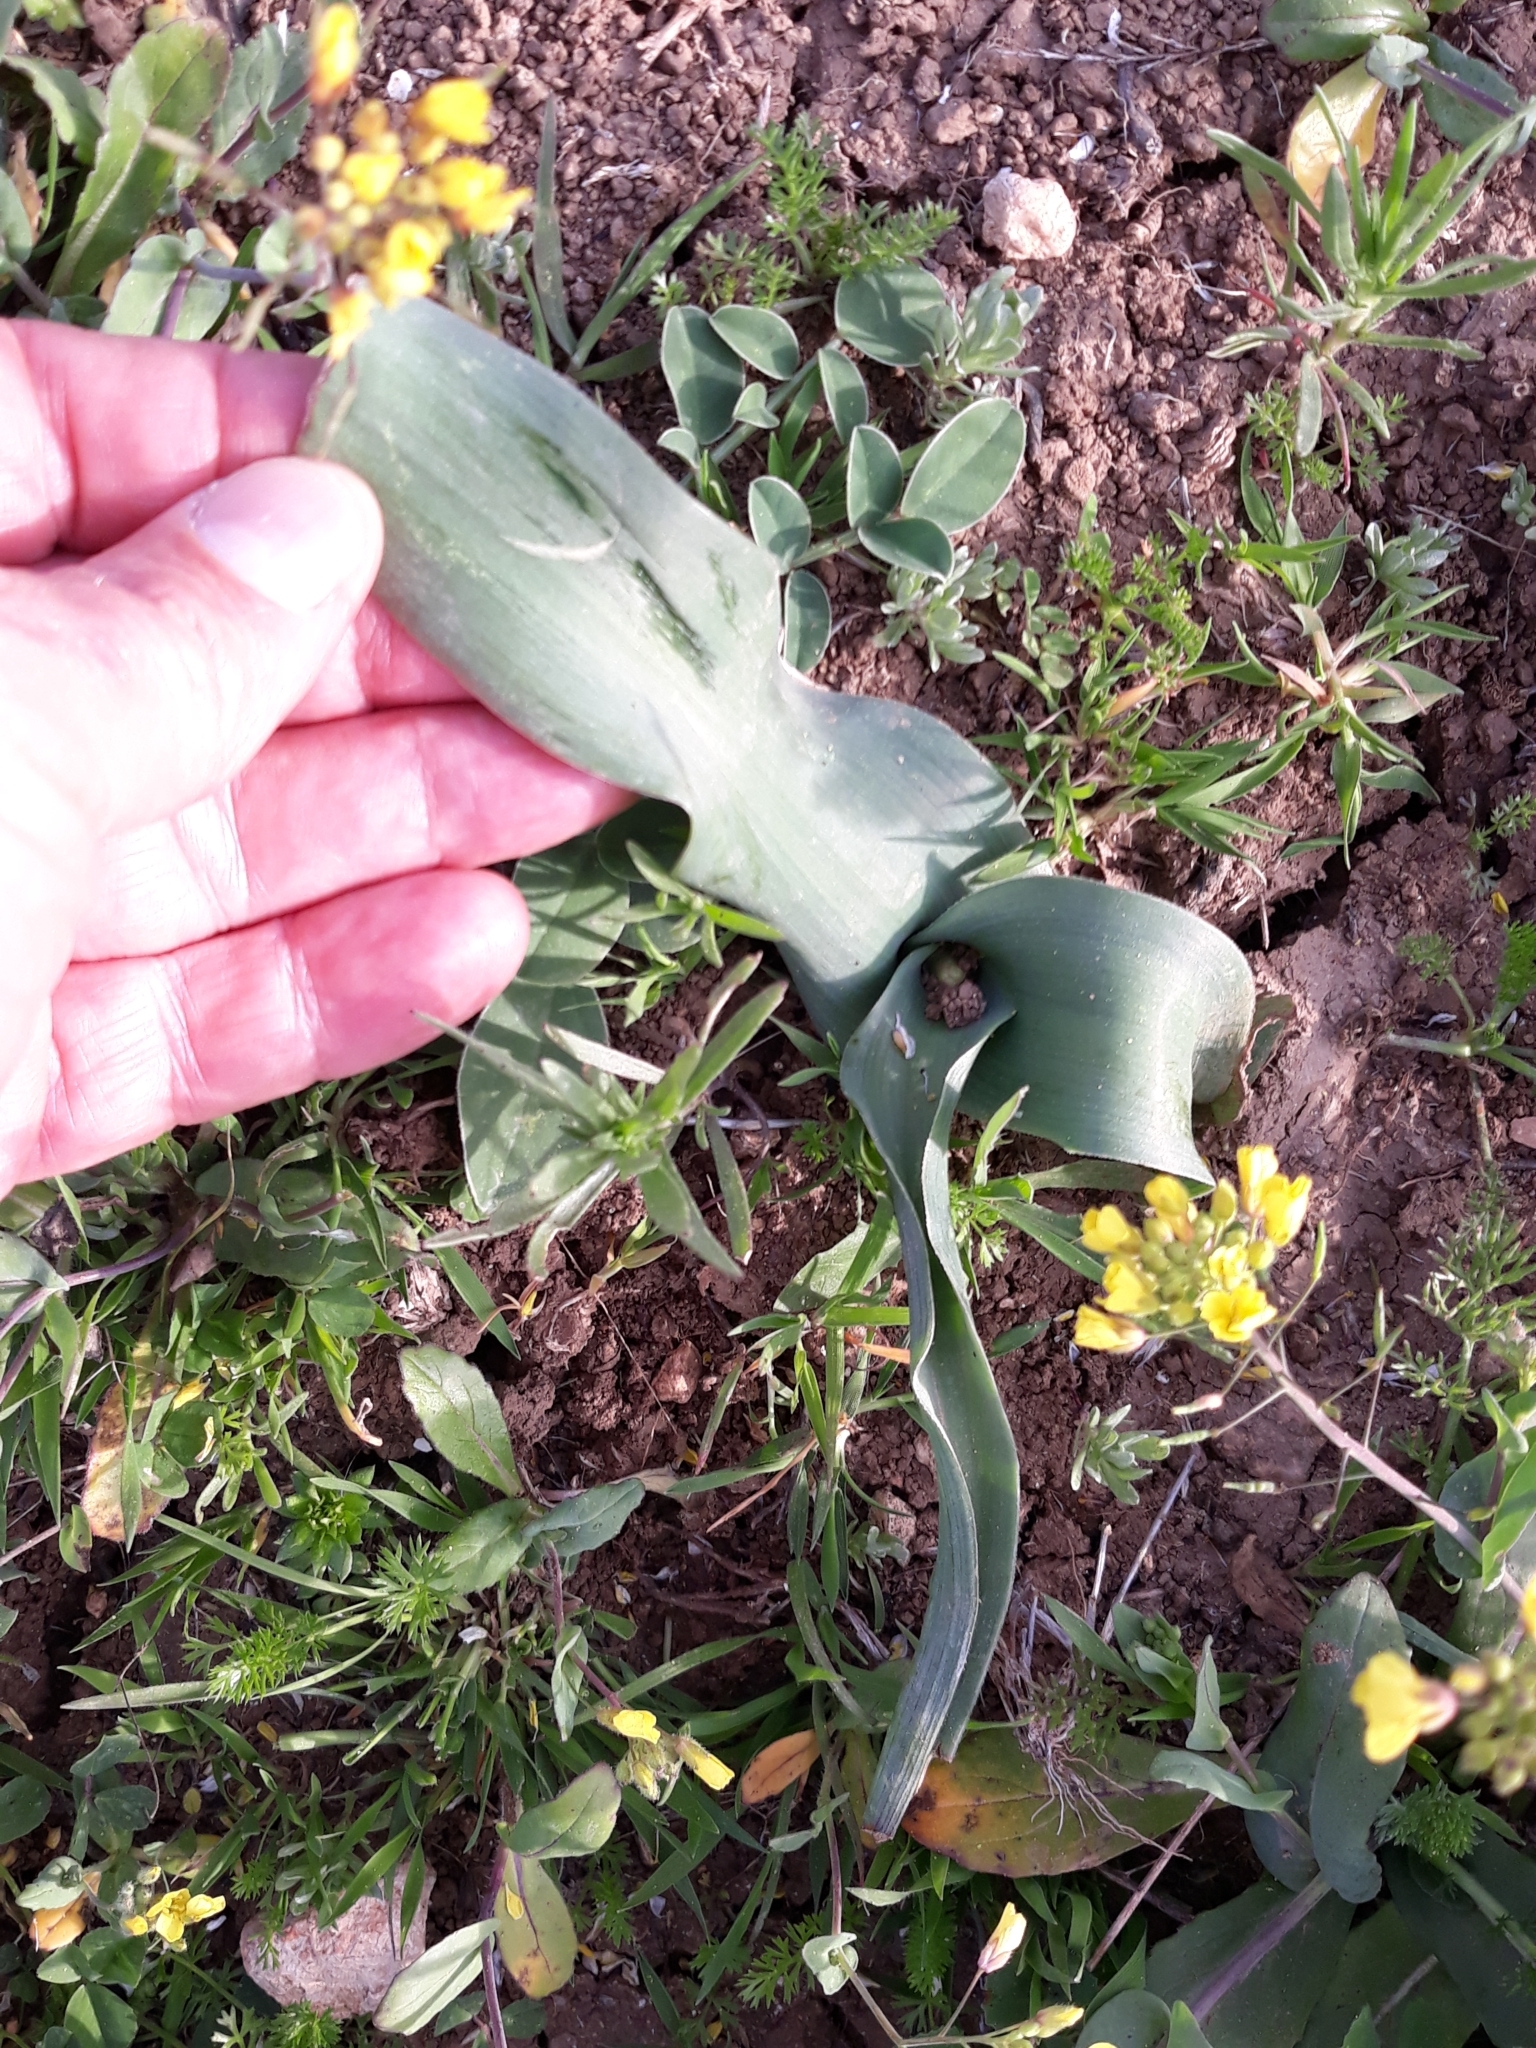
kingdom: Plantae
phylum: Tracheophyta
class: Liliopsida
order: Asparagales
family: Asparagaceae
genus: Prospero
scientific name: Prospero obtusifolium
